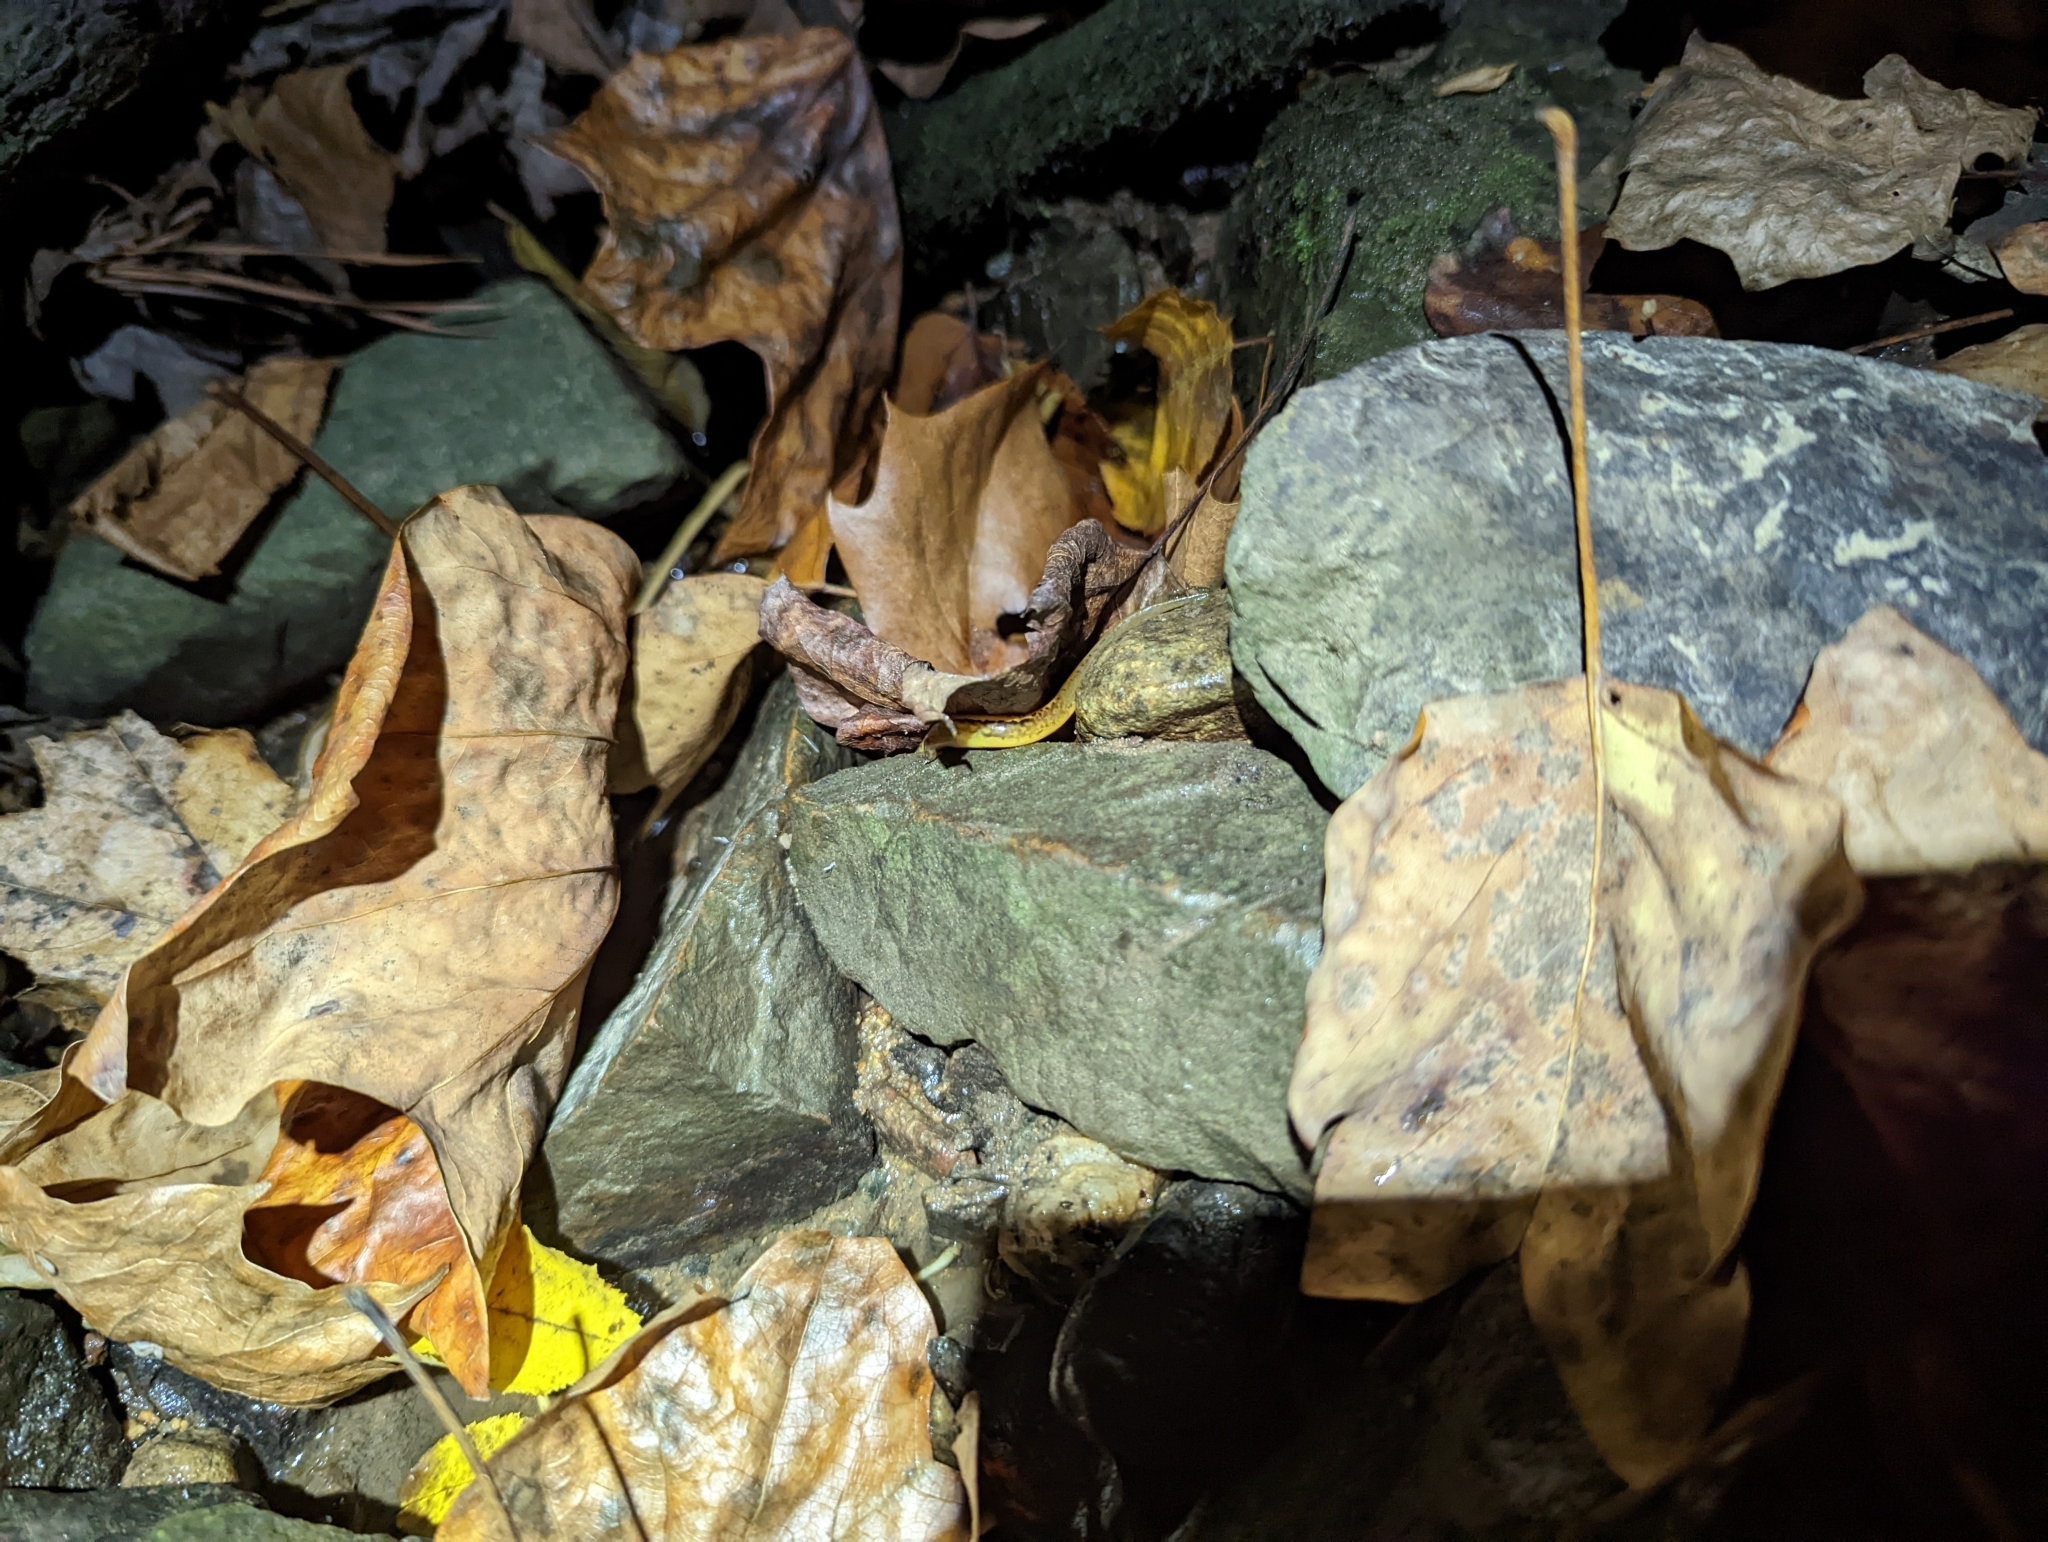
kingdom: Animalia
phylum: Chordata
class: Amphibia
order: Caudata
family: Plethodontidae
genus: Eurycea
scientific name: Eurycea cirrigera
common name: Southern two-lined salamander
